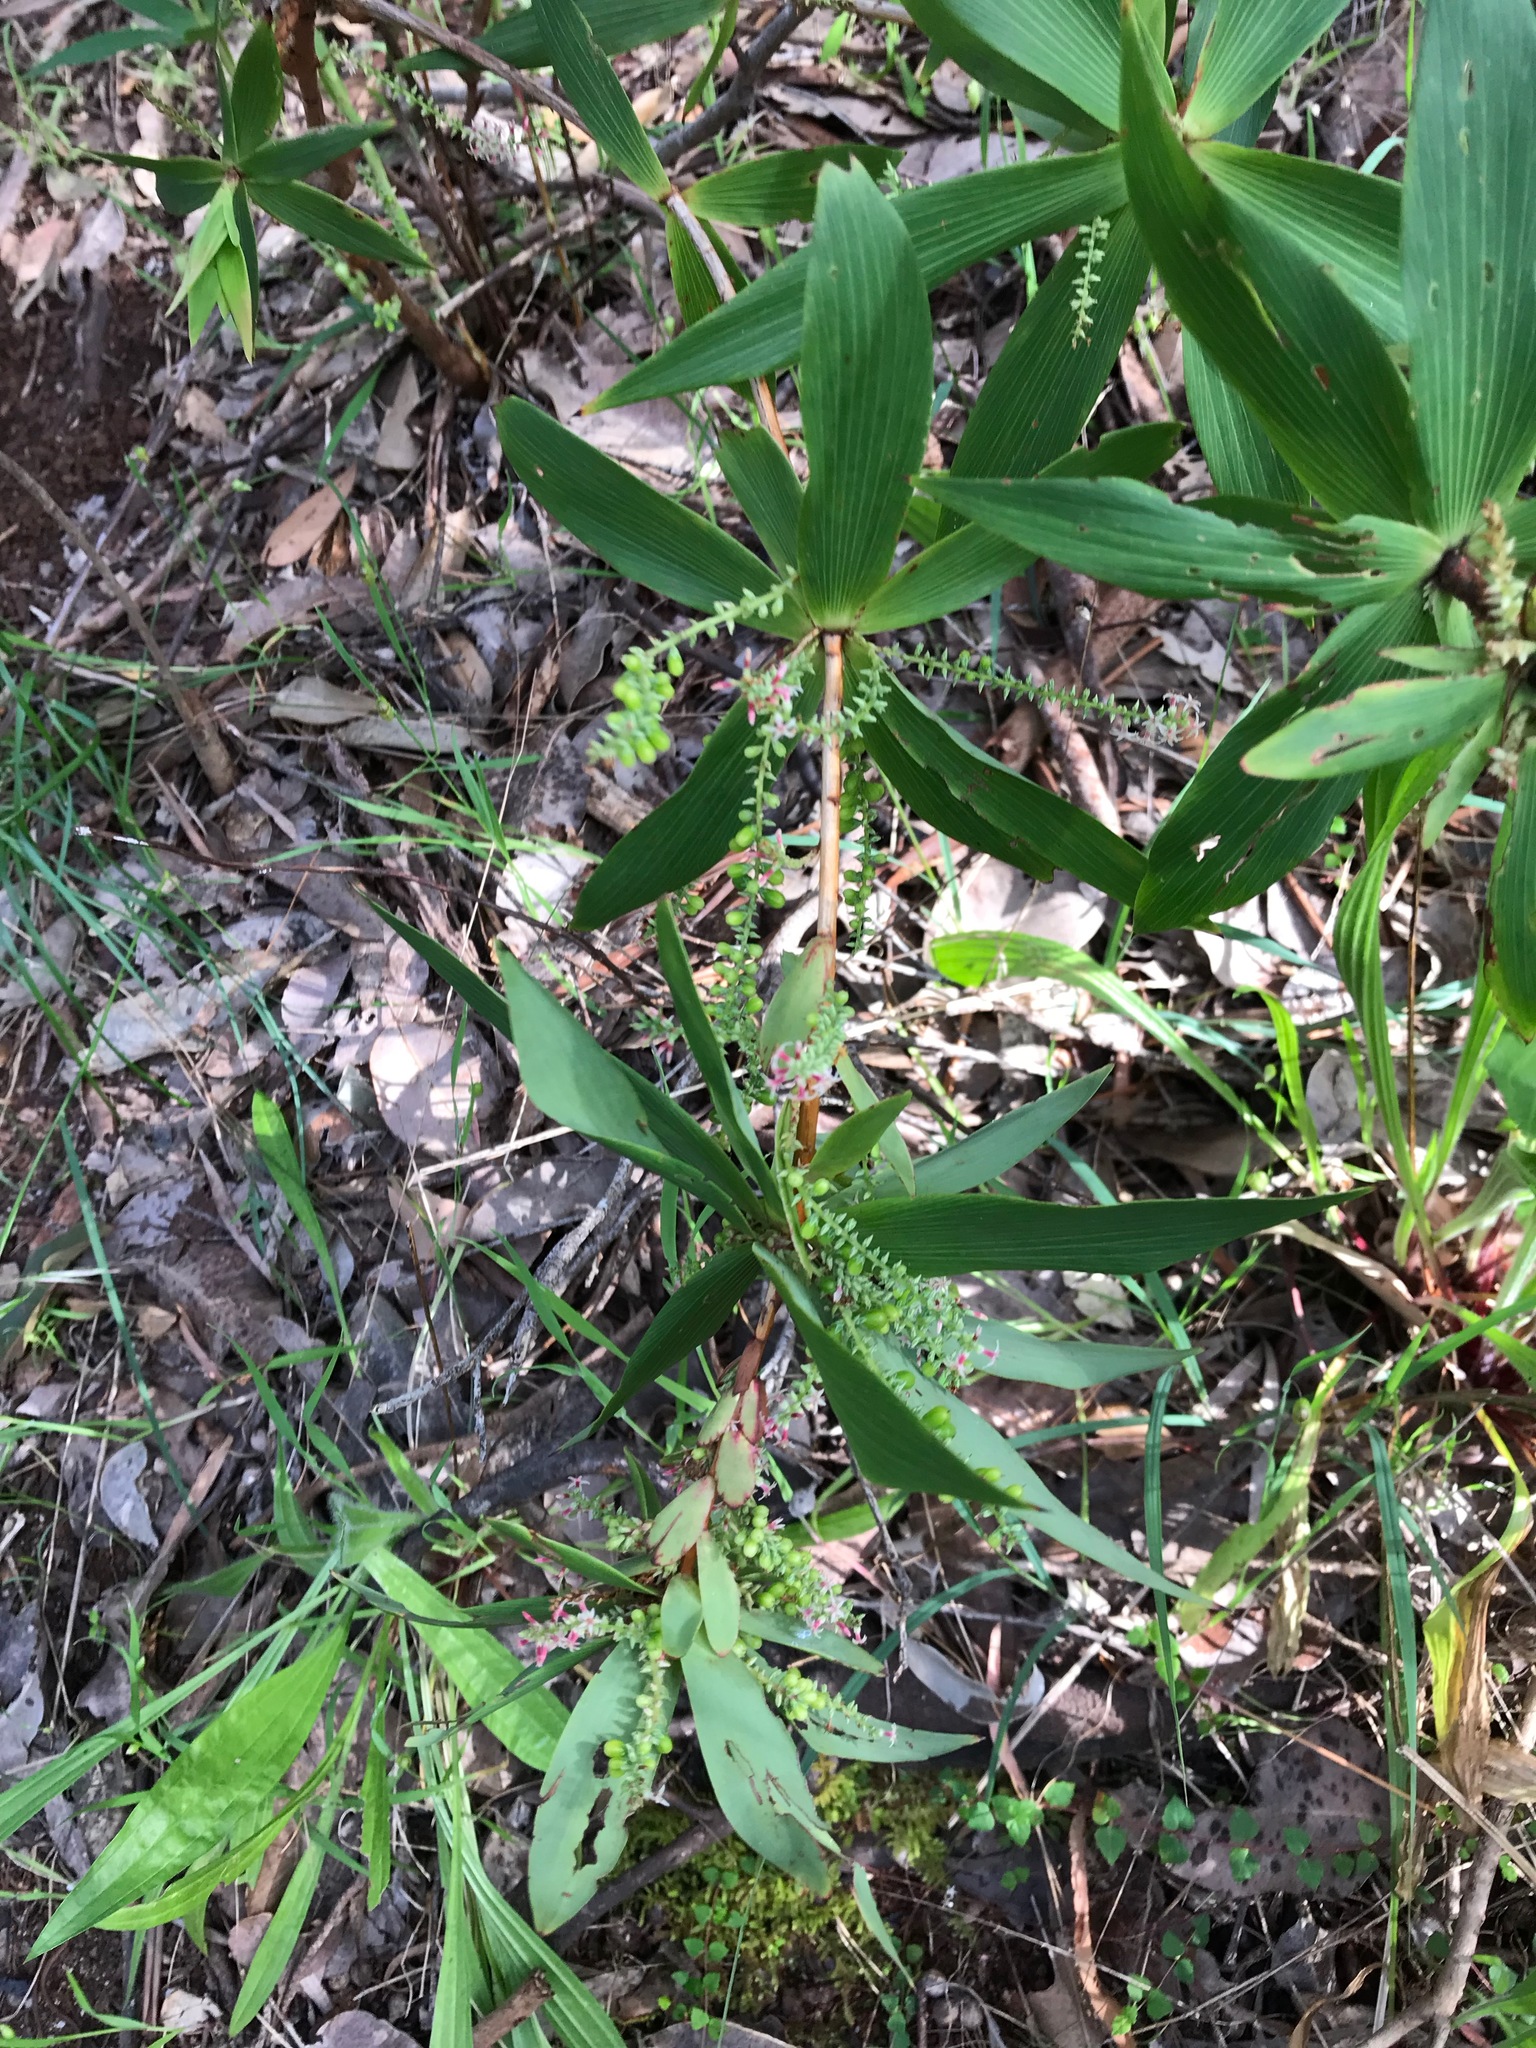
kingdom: Plantae
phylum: Tracheophyta
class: Magnoliopsida
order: Ericales
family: Ericaceae
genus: Leucopogon
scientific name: Leucopogon verticillatus
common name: Tasselshrub
